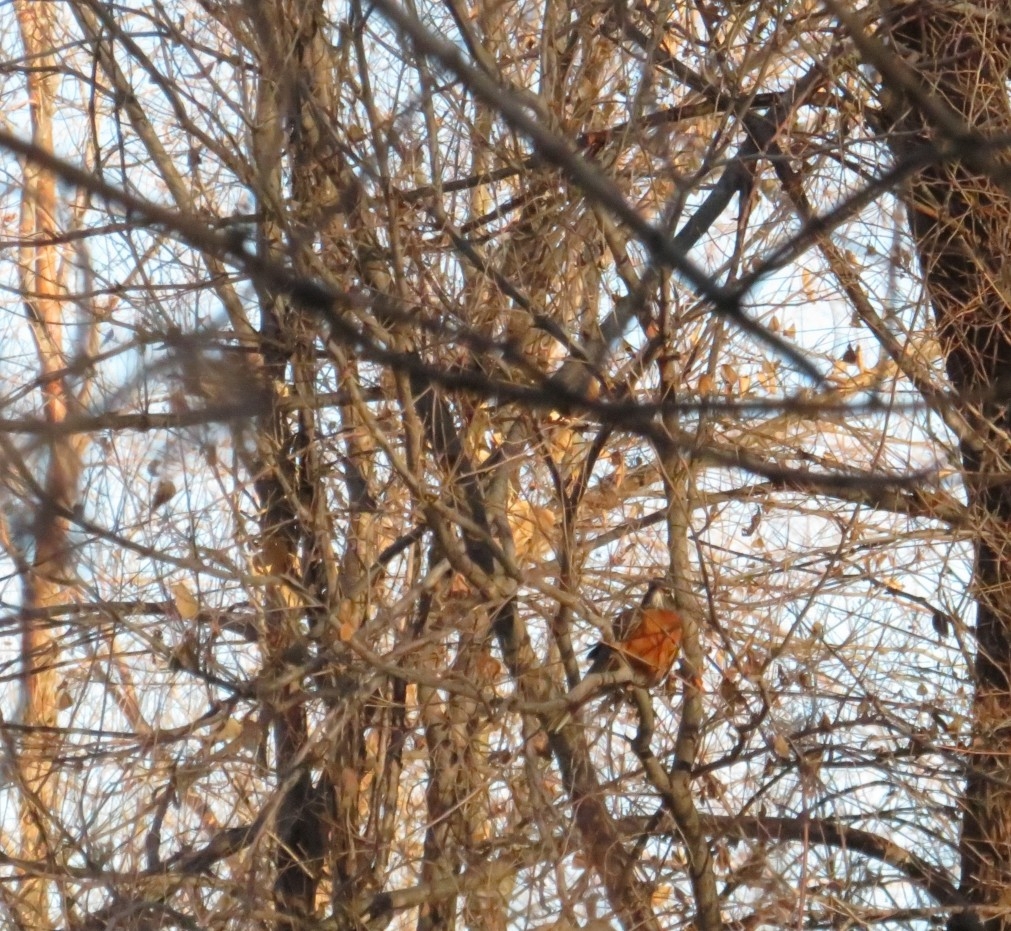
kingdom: Animalia
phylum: Chordata
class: Aves
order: Passeriformes
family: Turdidae
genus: Turdus
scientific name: Turdus migratorius
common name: American robin
